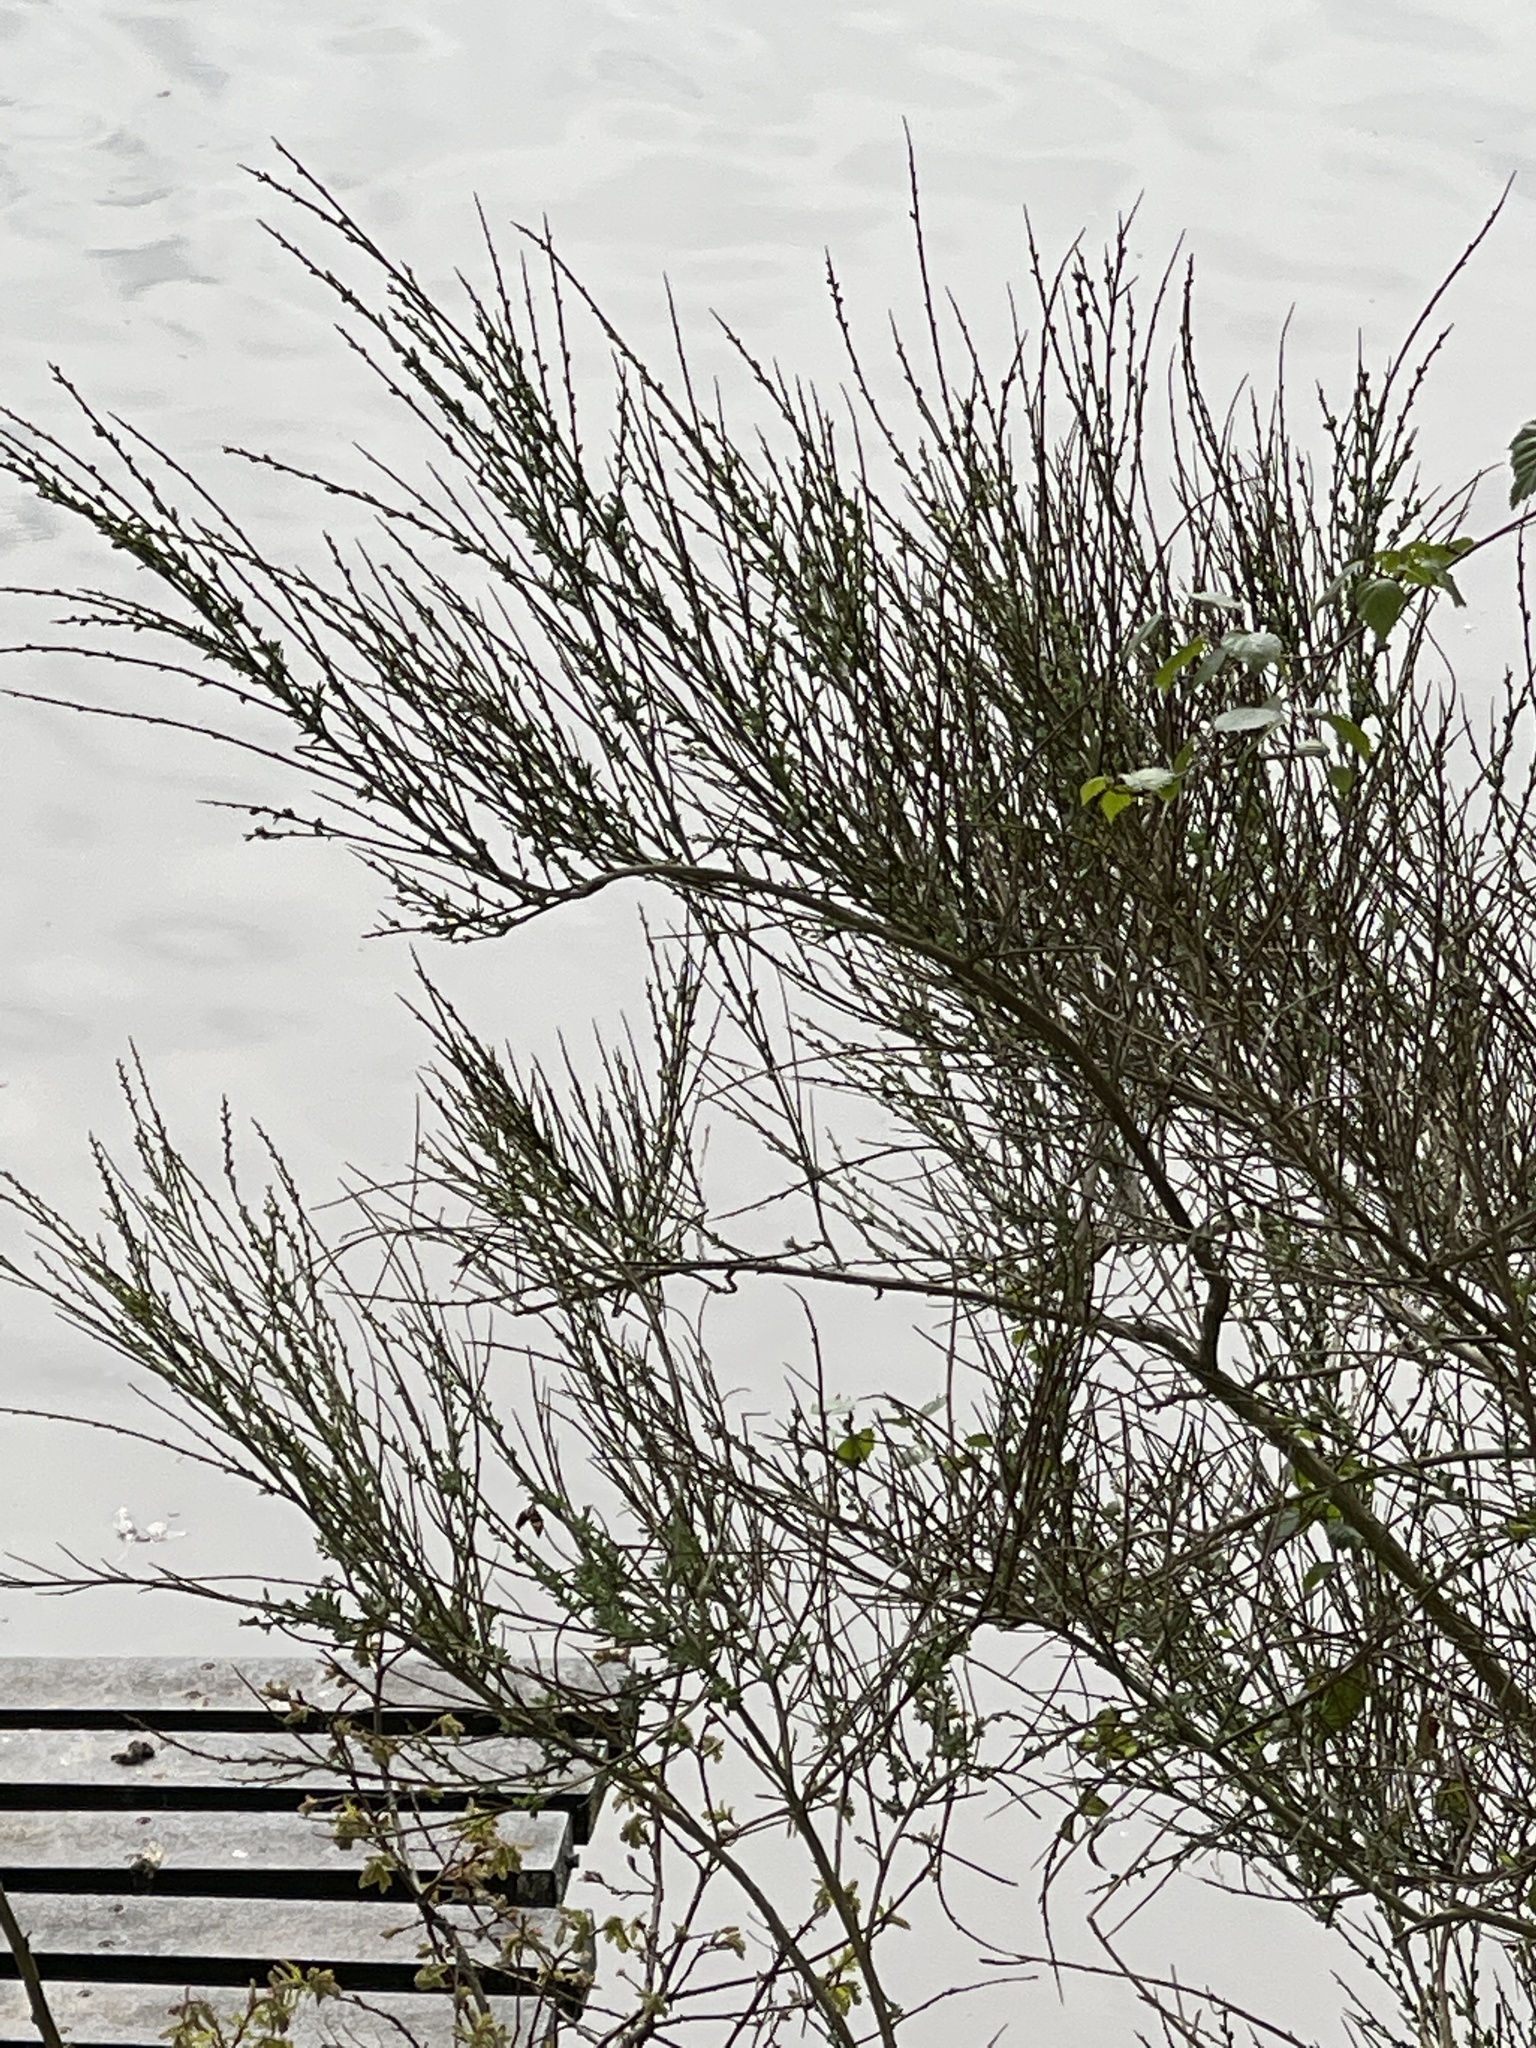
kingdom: Plantae
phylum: Tracheophyta
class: Magnoliopsida
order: Fabales
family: Fabaceae
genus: Cytisus
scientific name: Cytisus scoparius
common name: Scotch broom
